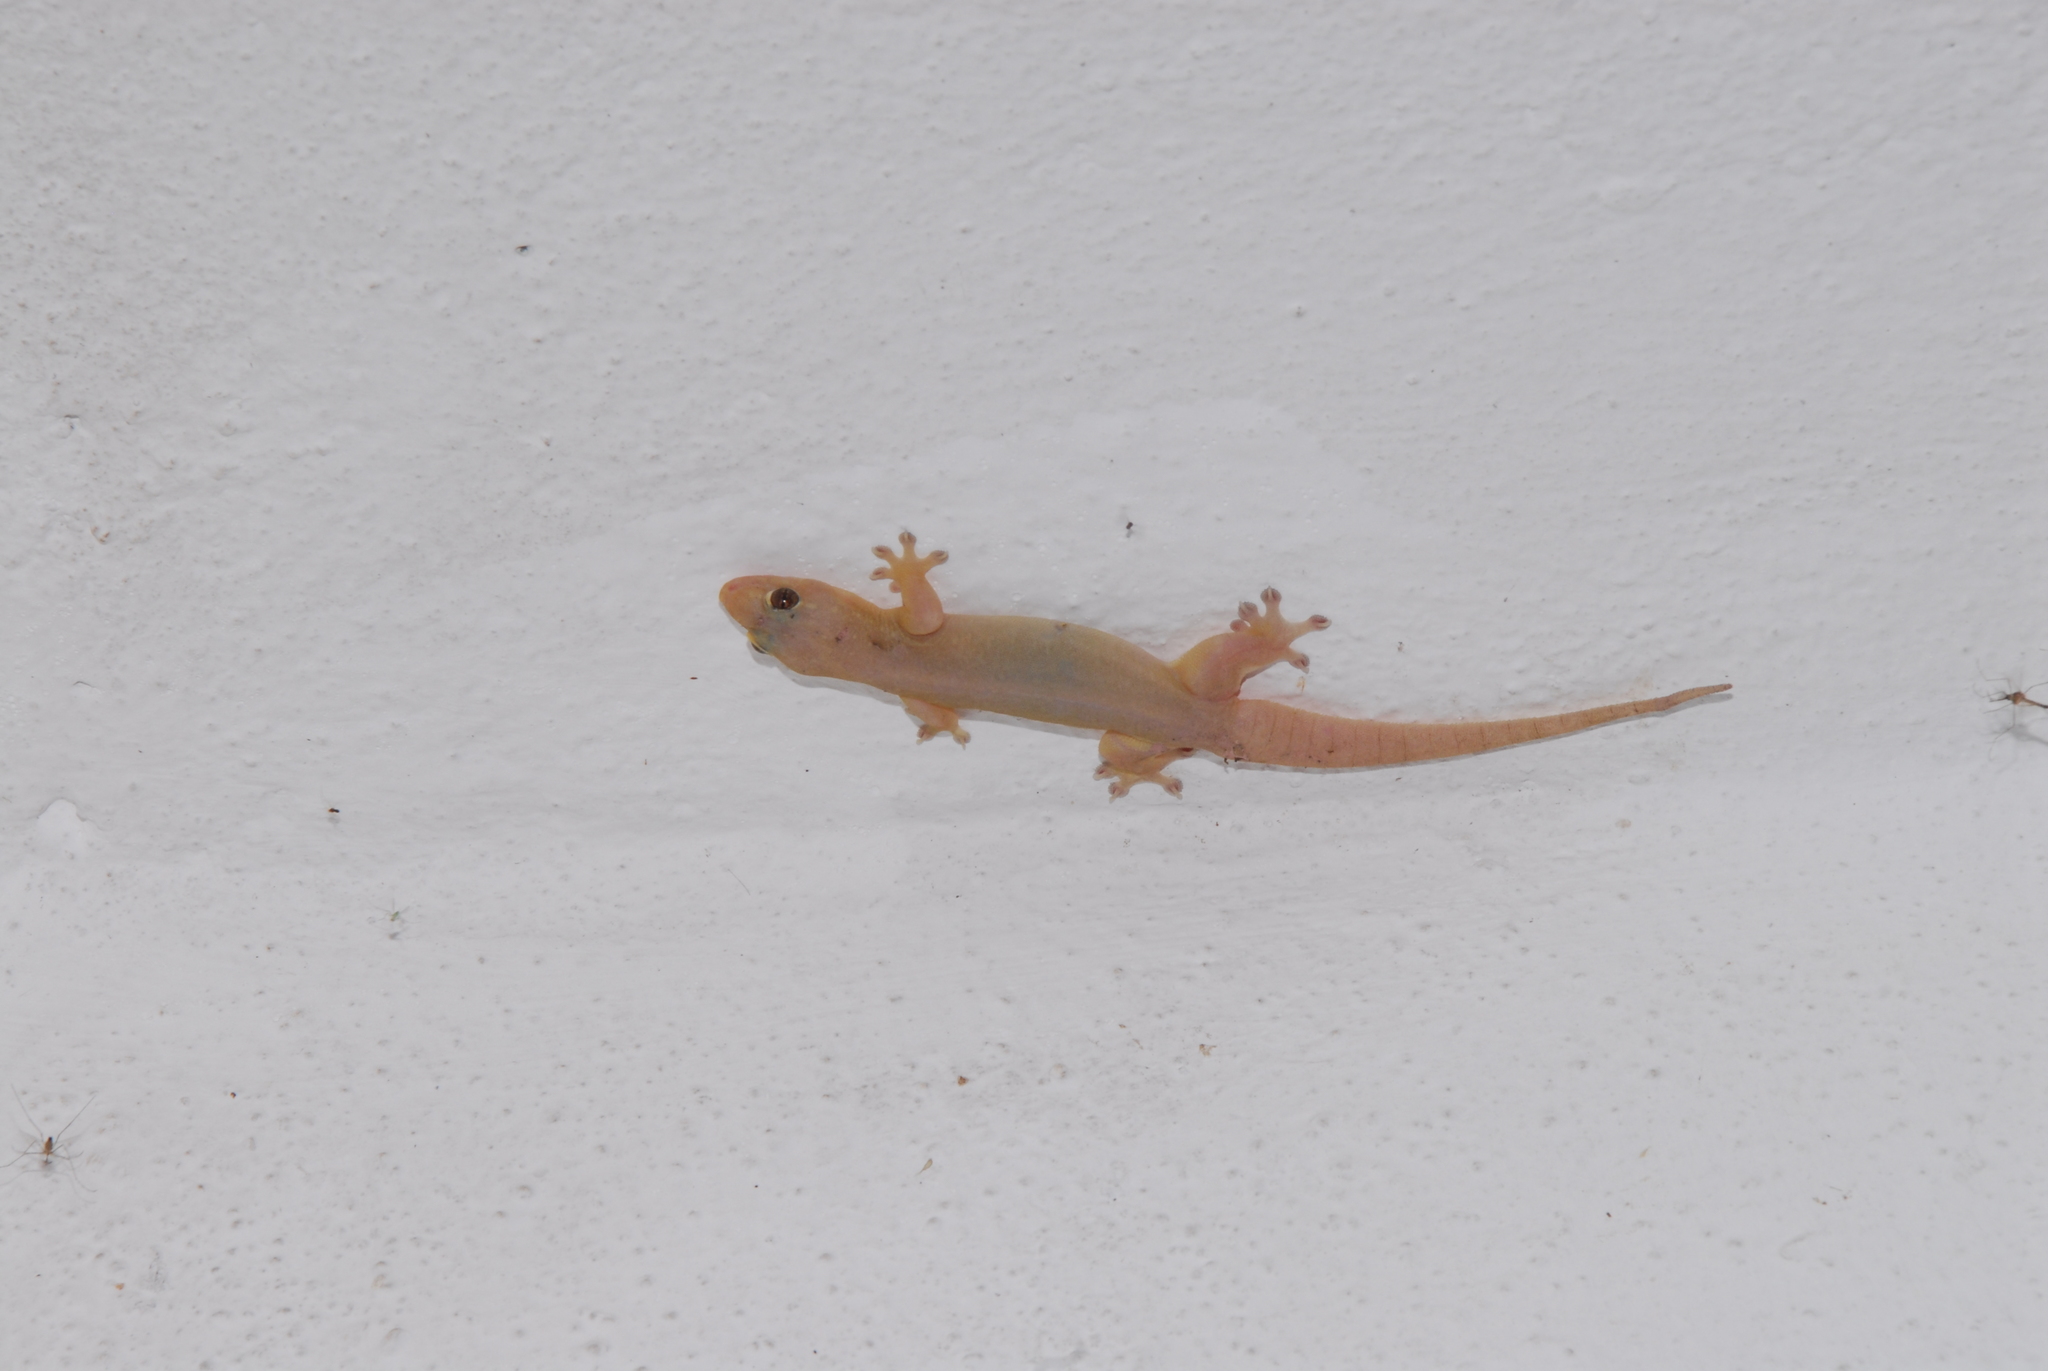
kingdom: Animalia
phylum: Chordata
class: Squamata
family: Gekkonidae
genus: Gehyra
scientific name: Gehyra mutilata
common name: Stump-toed gecko
